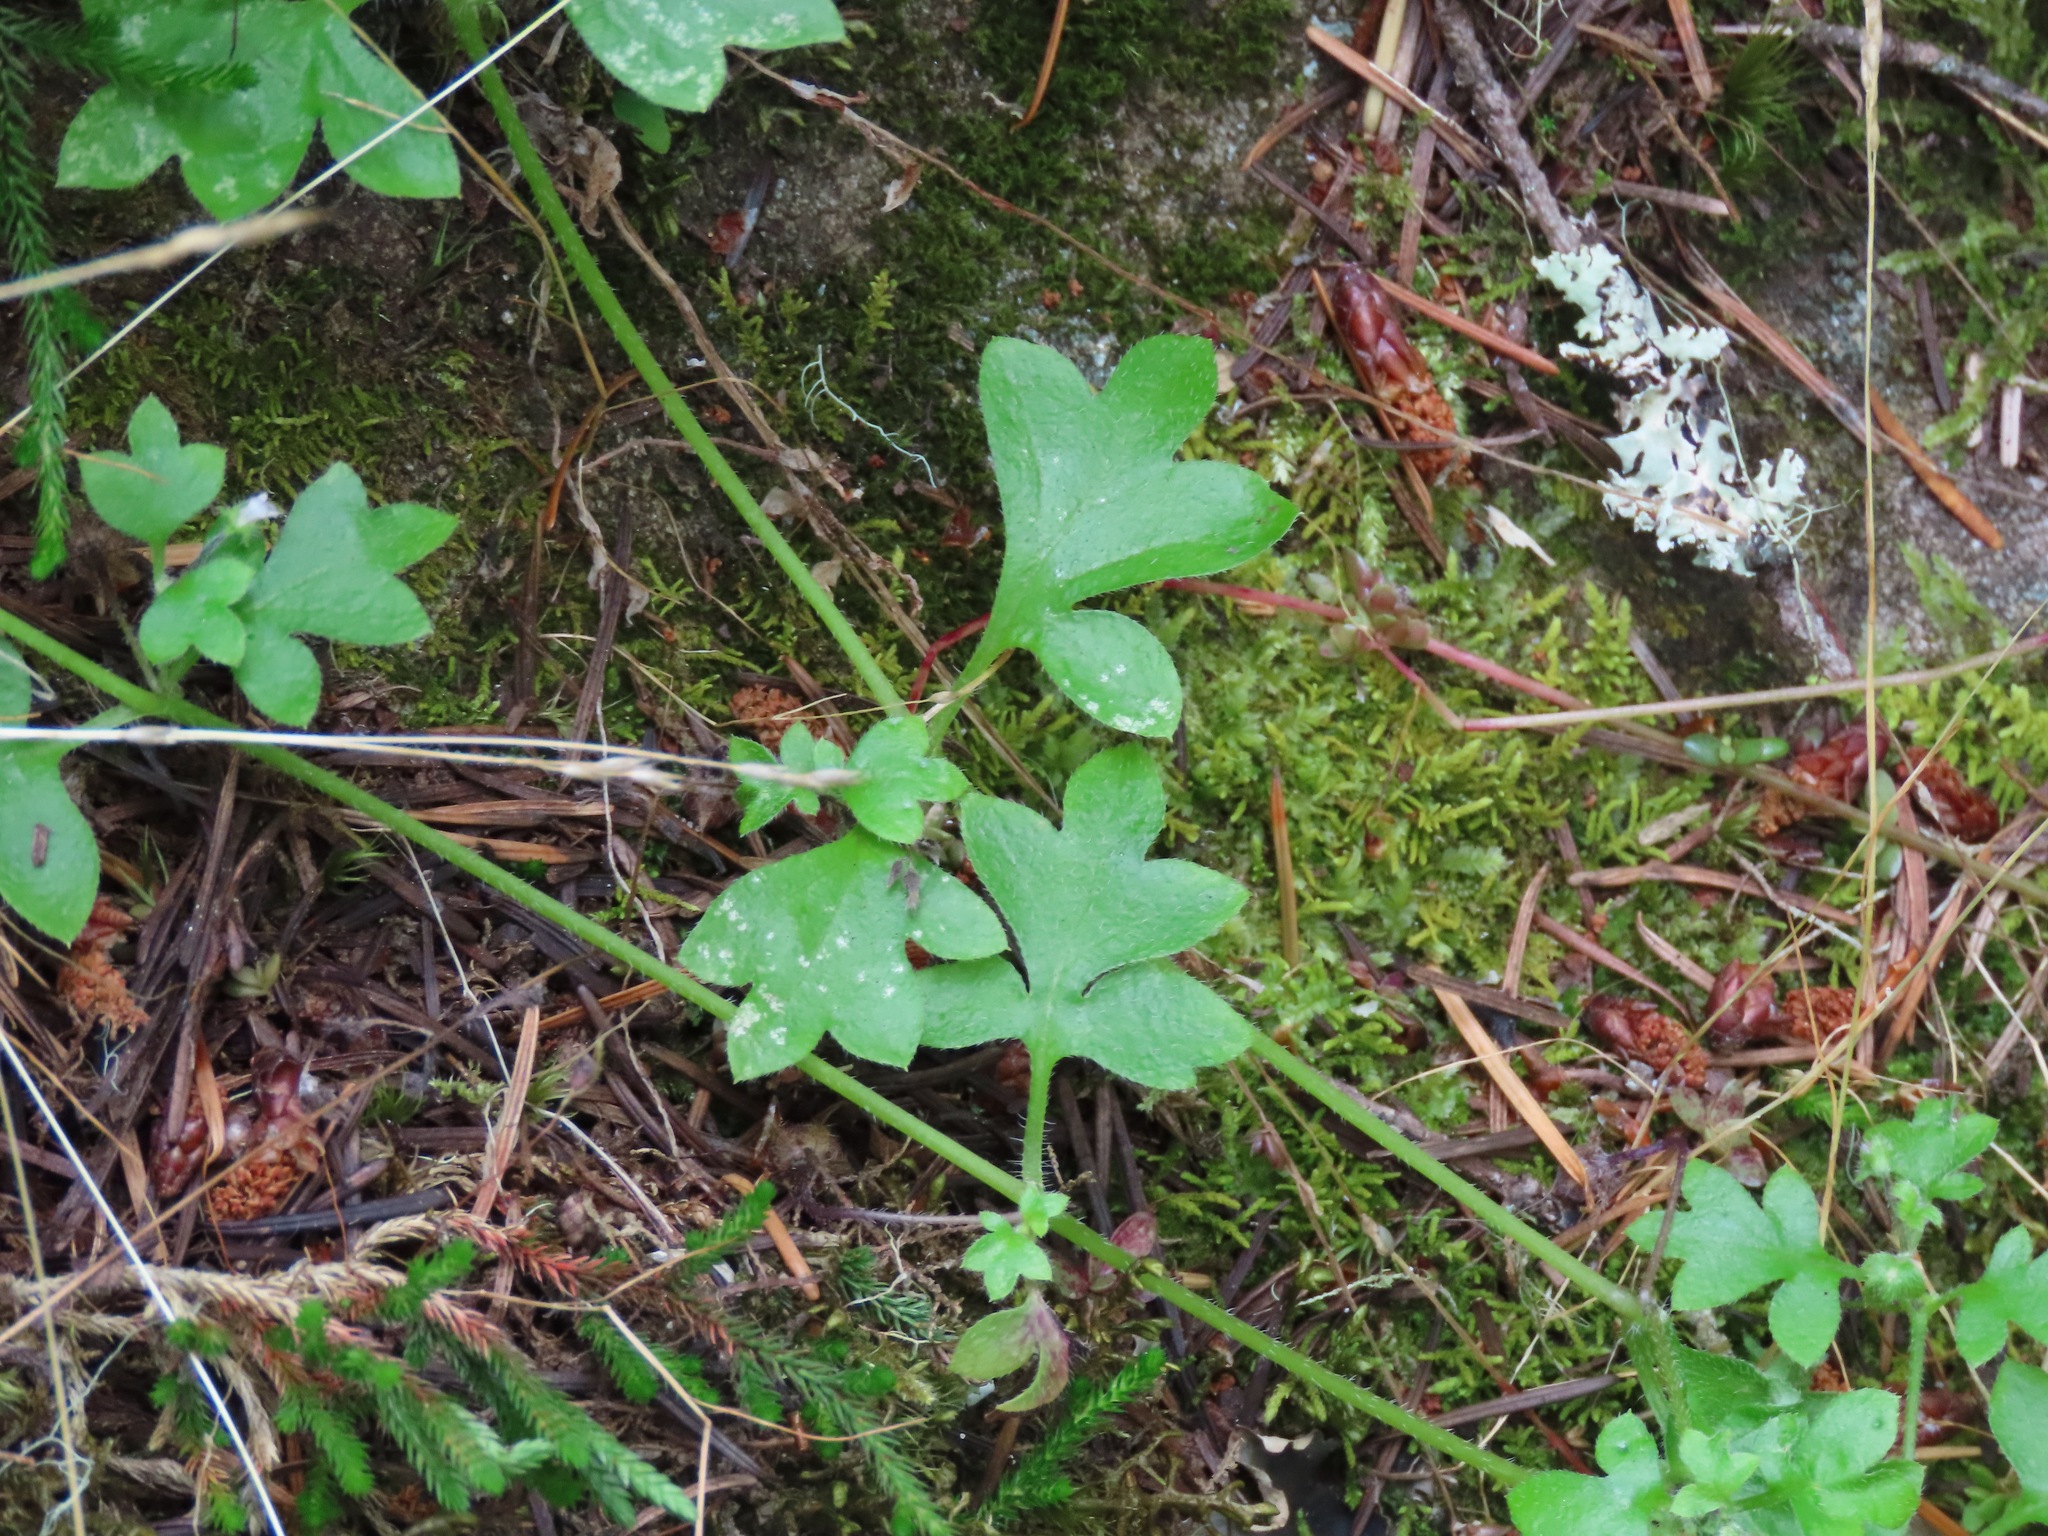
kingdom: Plantae
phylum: Tracheophyta
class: Magnoliopsida
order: Boraginales
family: Hydrophyllaceae
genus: Nemophila
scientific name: Nemophila parviflora
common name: Small-flowered baby-blue-eyes
